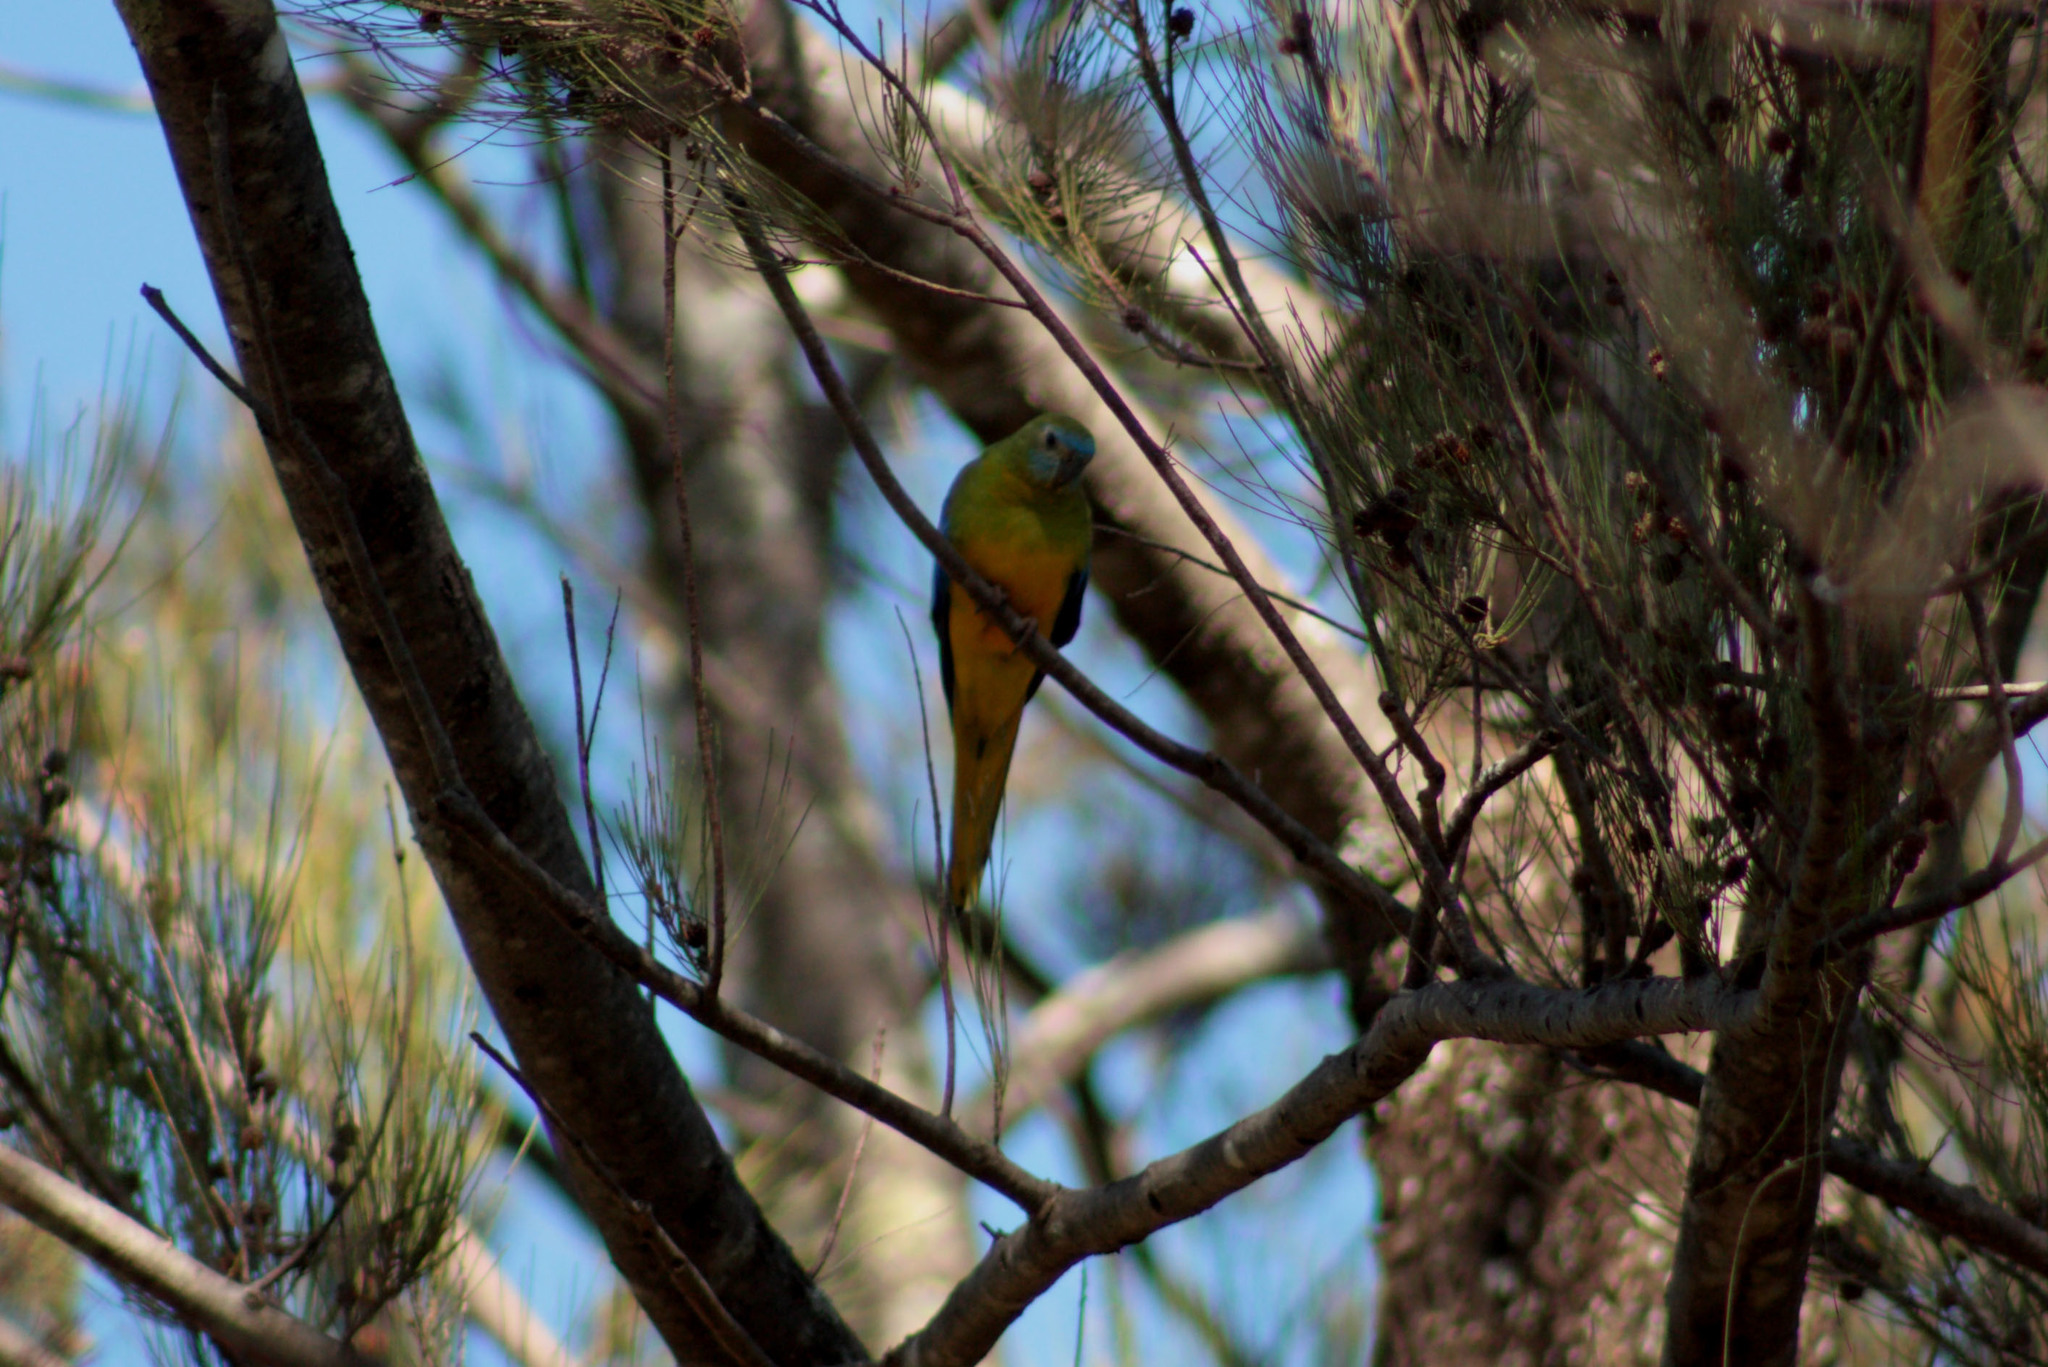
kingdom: Animalia
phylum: Chordata
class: Aves
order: Psittaciformes
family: Psittacidae
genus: Neophema
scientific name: Neophema pulchella
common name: Turquoise parrot
